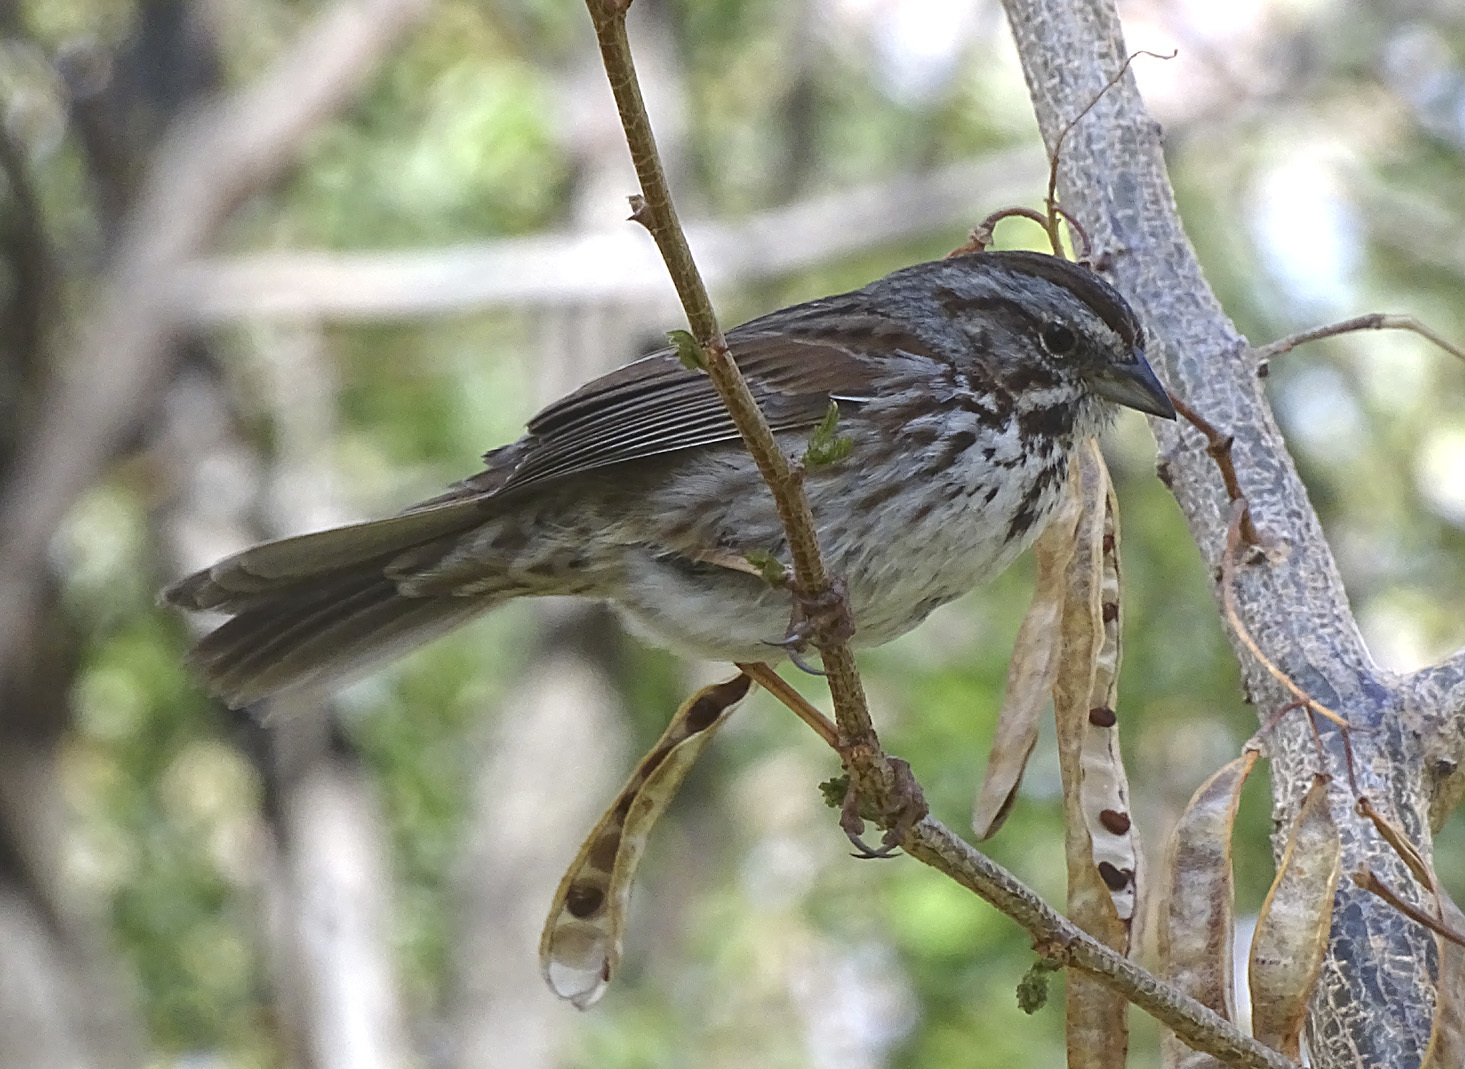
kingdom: Animalia
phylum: Chordata
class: Aves
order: Passeriformes
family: Passerellidae
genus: Melospiza
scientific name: Melospiza melodia
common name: Song sparrow
